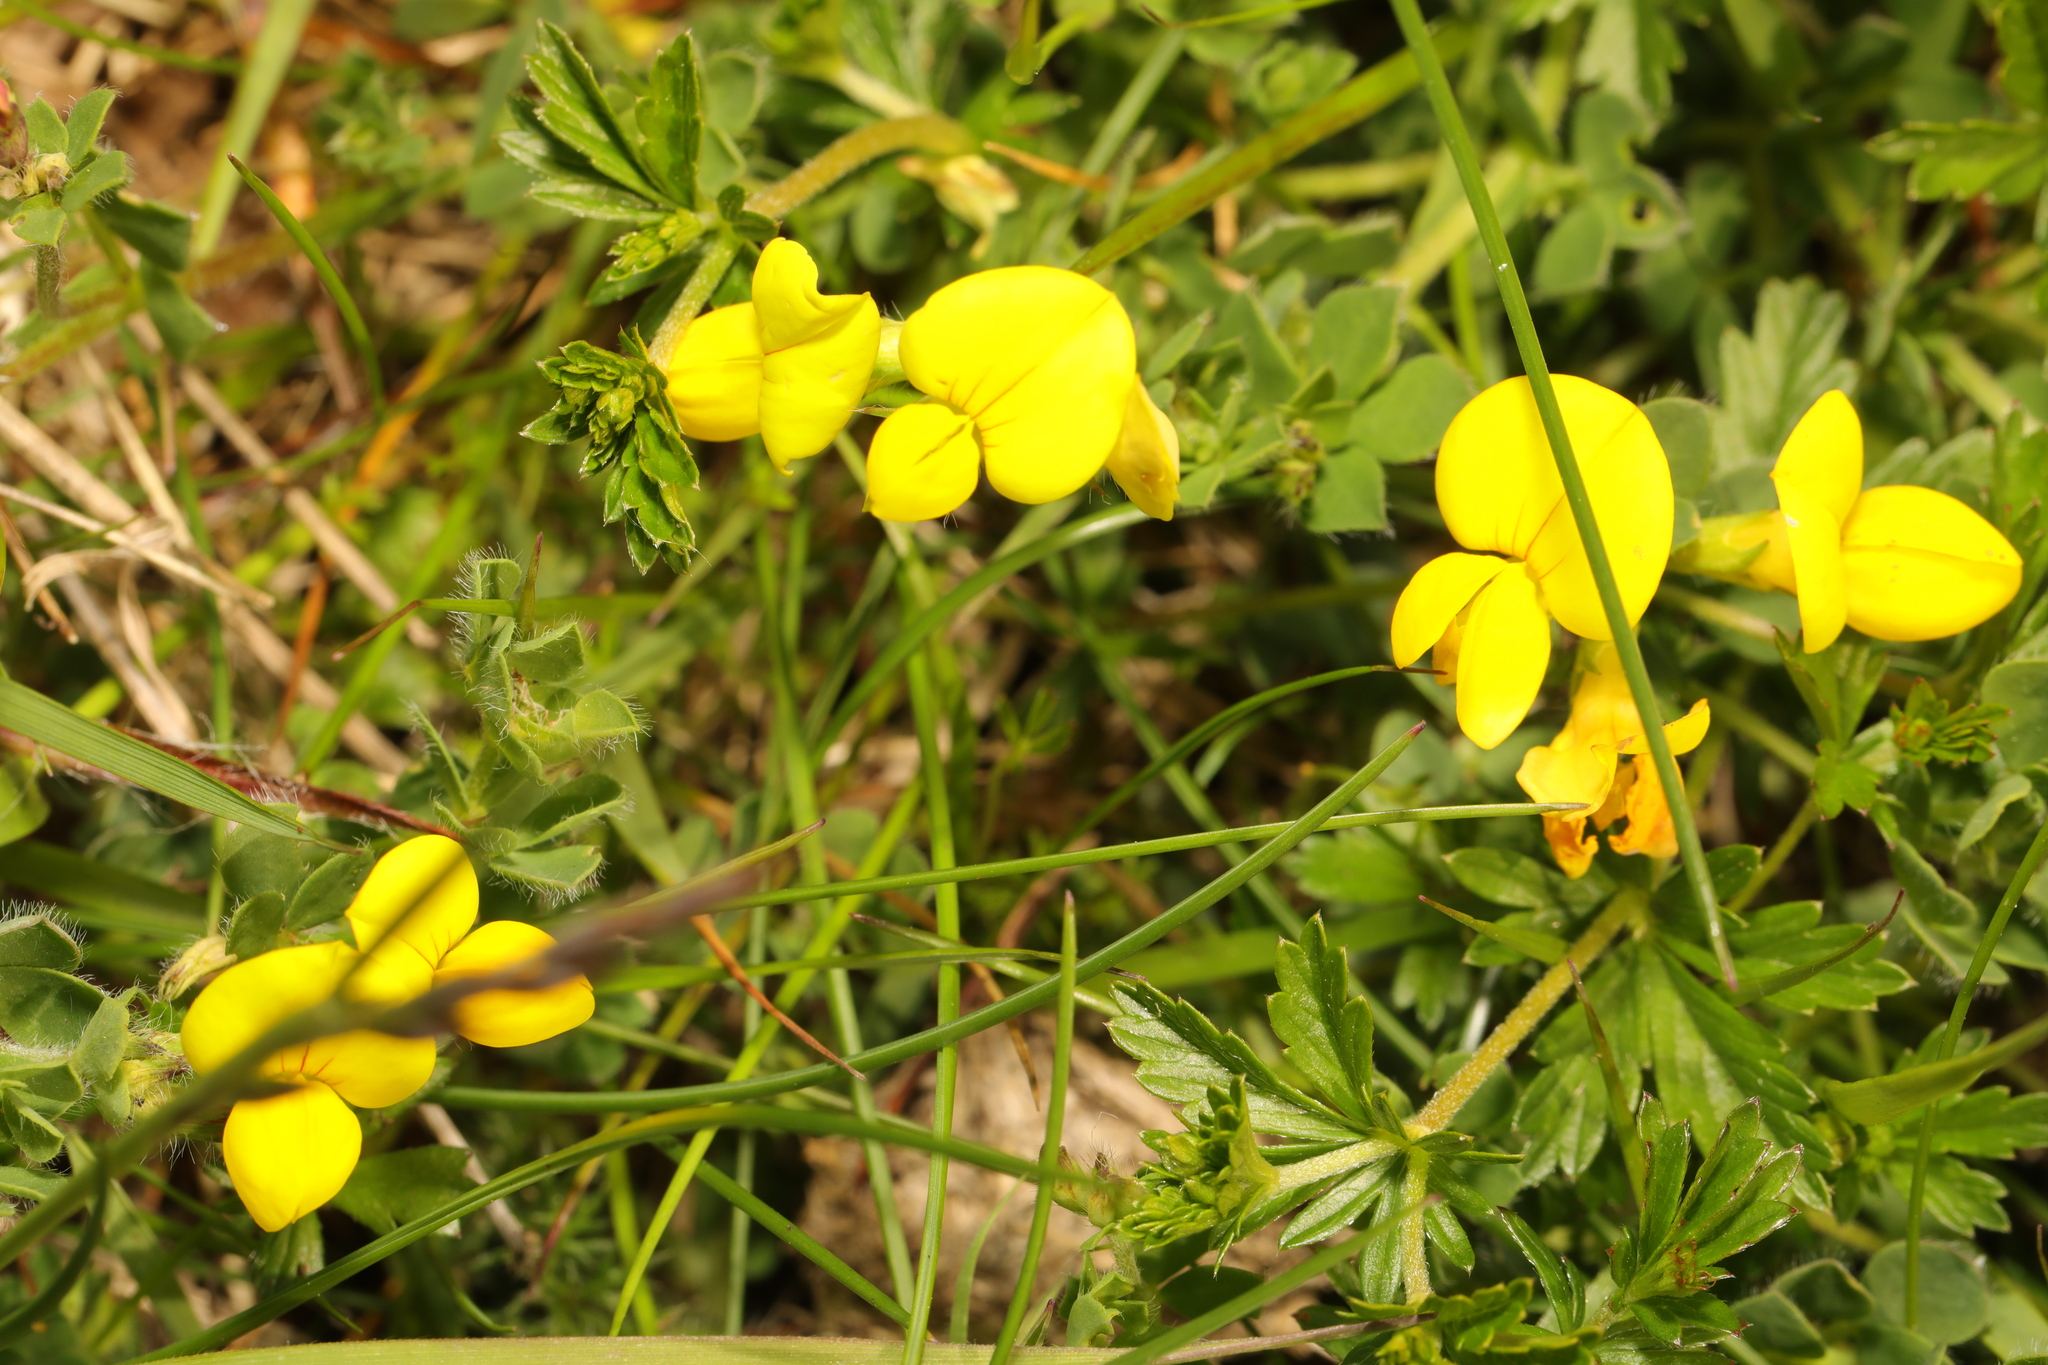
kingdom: Plantae
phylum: Tracheophyta
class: Magnoliopsida
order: Fabales
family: Fabaceae
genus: Lotus
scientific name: Lotus corniculatus
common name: Common bird's-foot-trefoil
